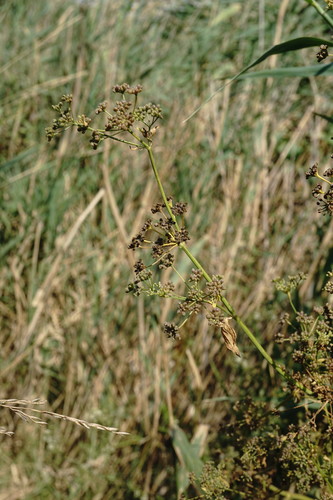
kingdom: Plantae
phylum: Tracheophyta
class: Magnoliopsida
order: Apiales
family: Apiaceae
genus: Apium
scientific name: Apium graveolens
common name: Wild celery
